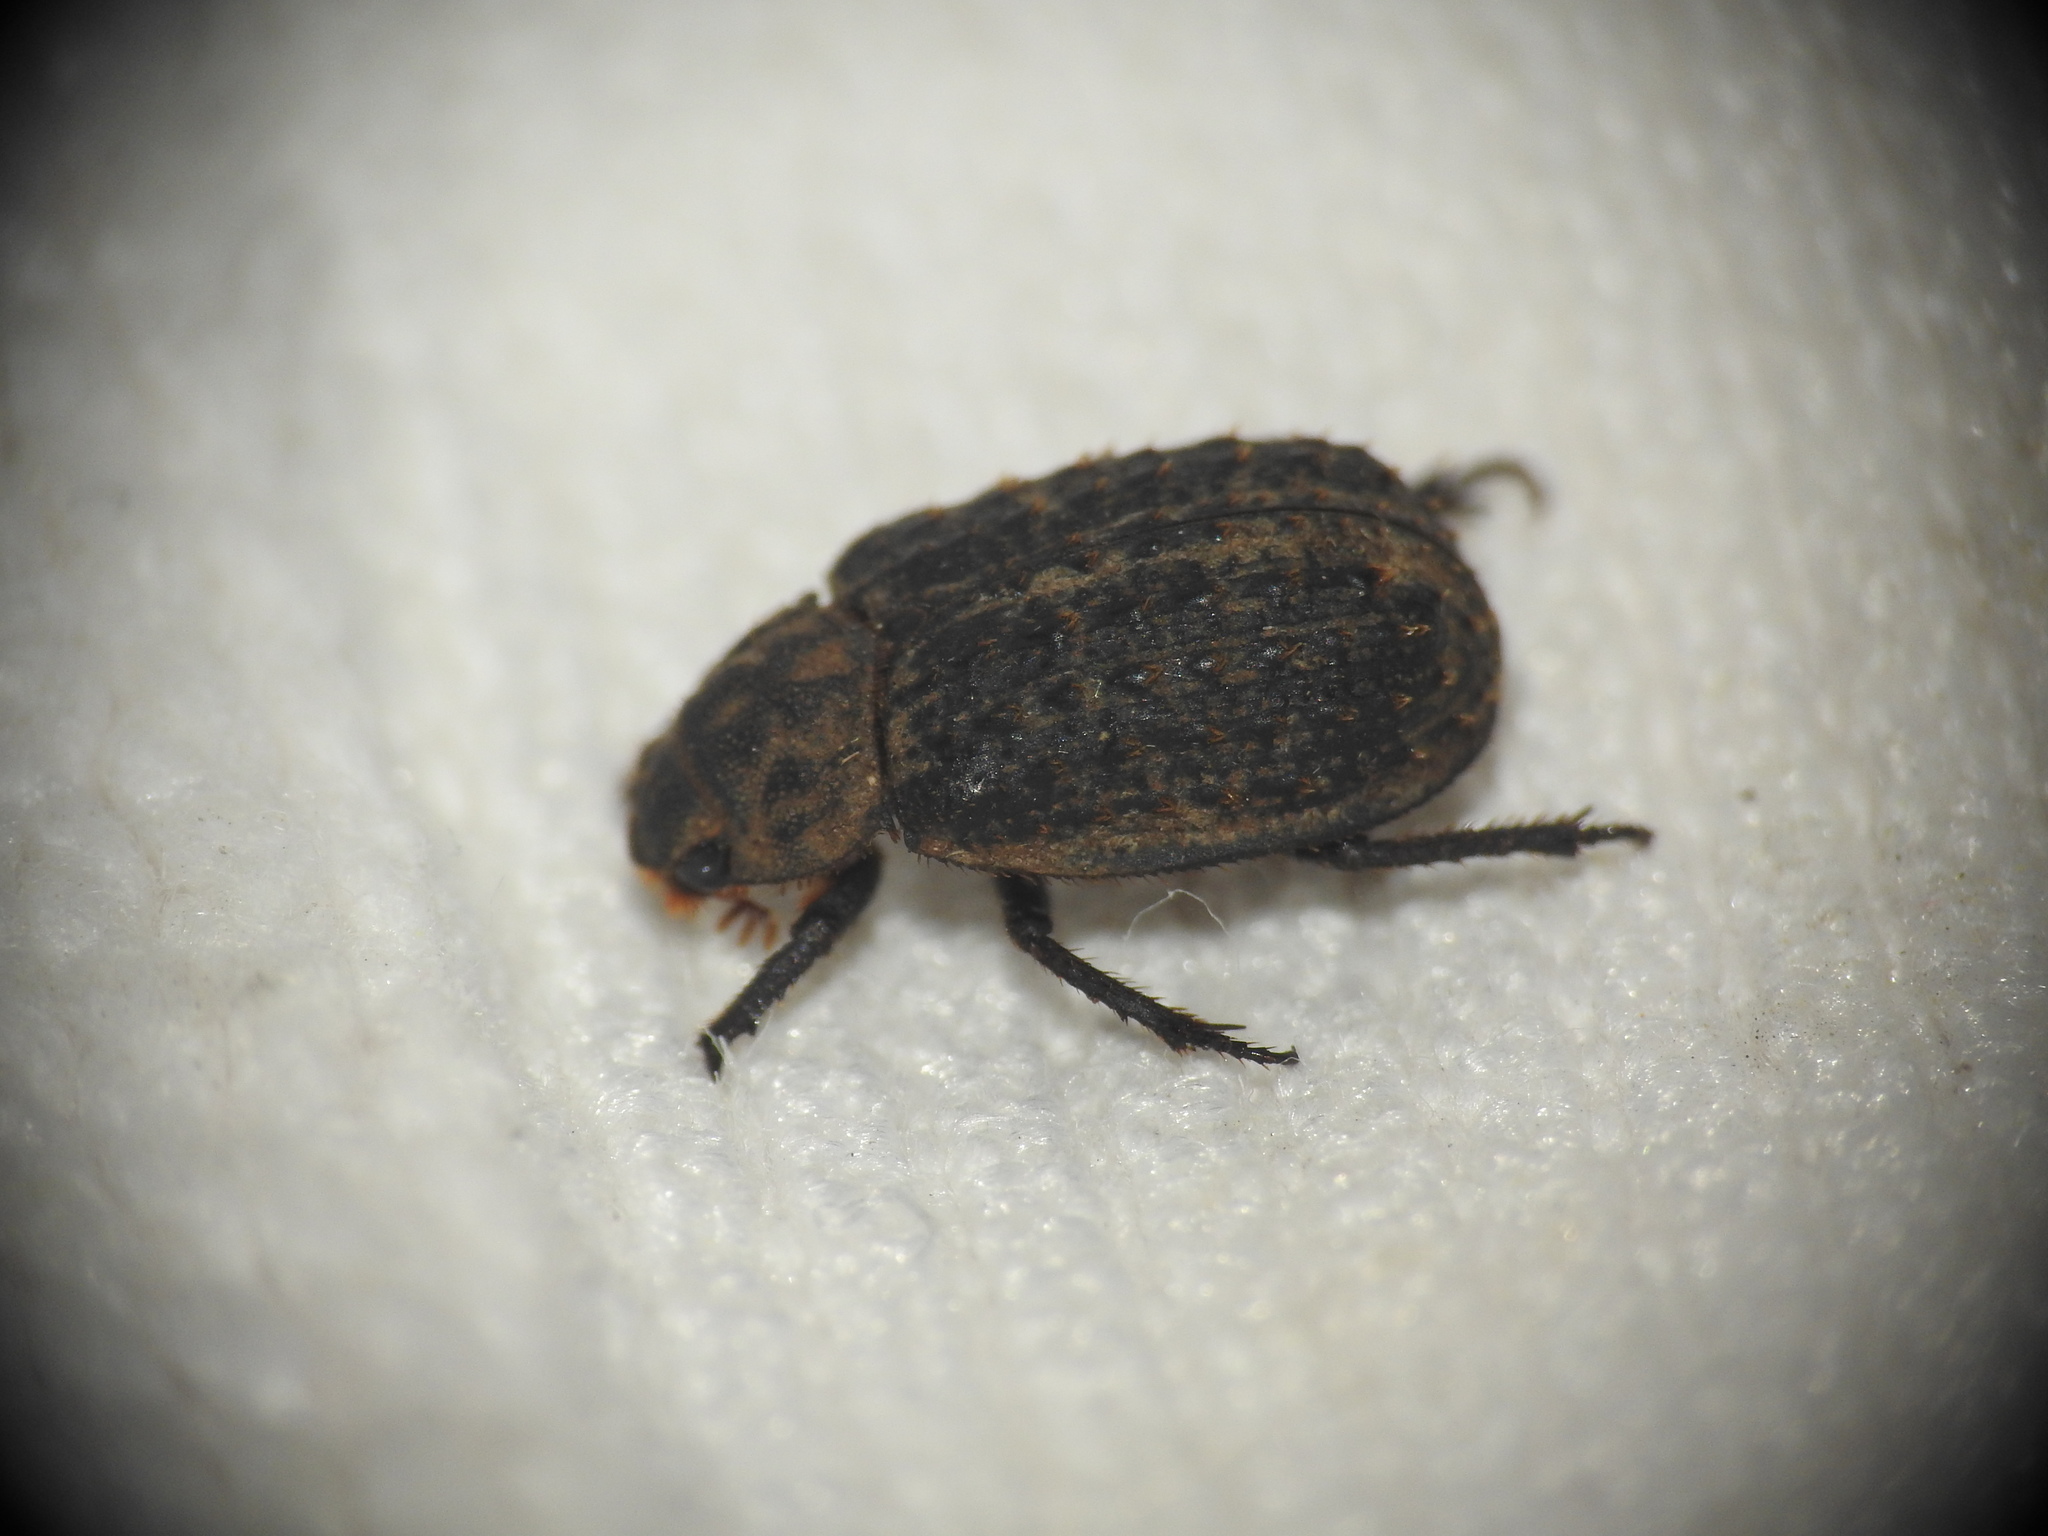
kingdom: Animalia
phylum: Arthropoda
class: Insecta
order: Coleoptera
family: Trogidae
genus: Trox
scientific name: Trox niger
